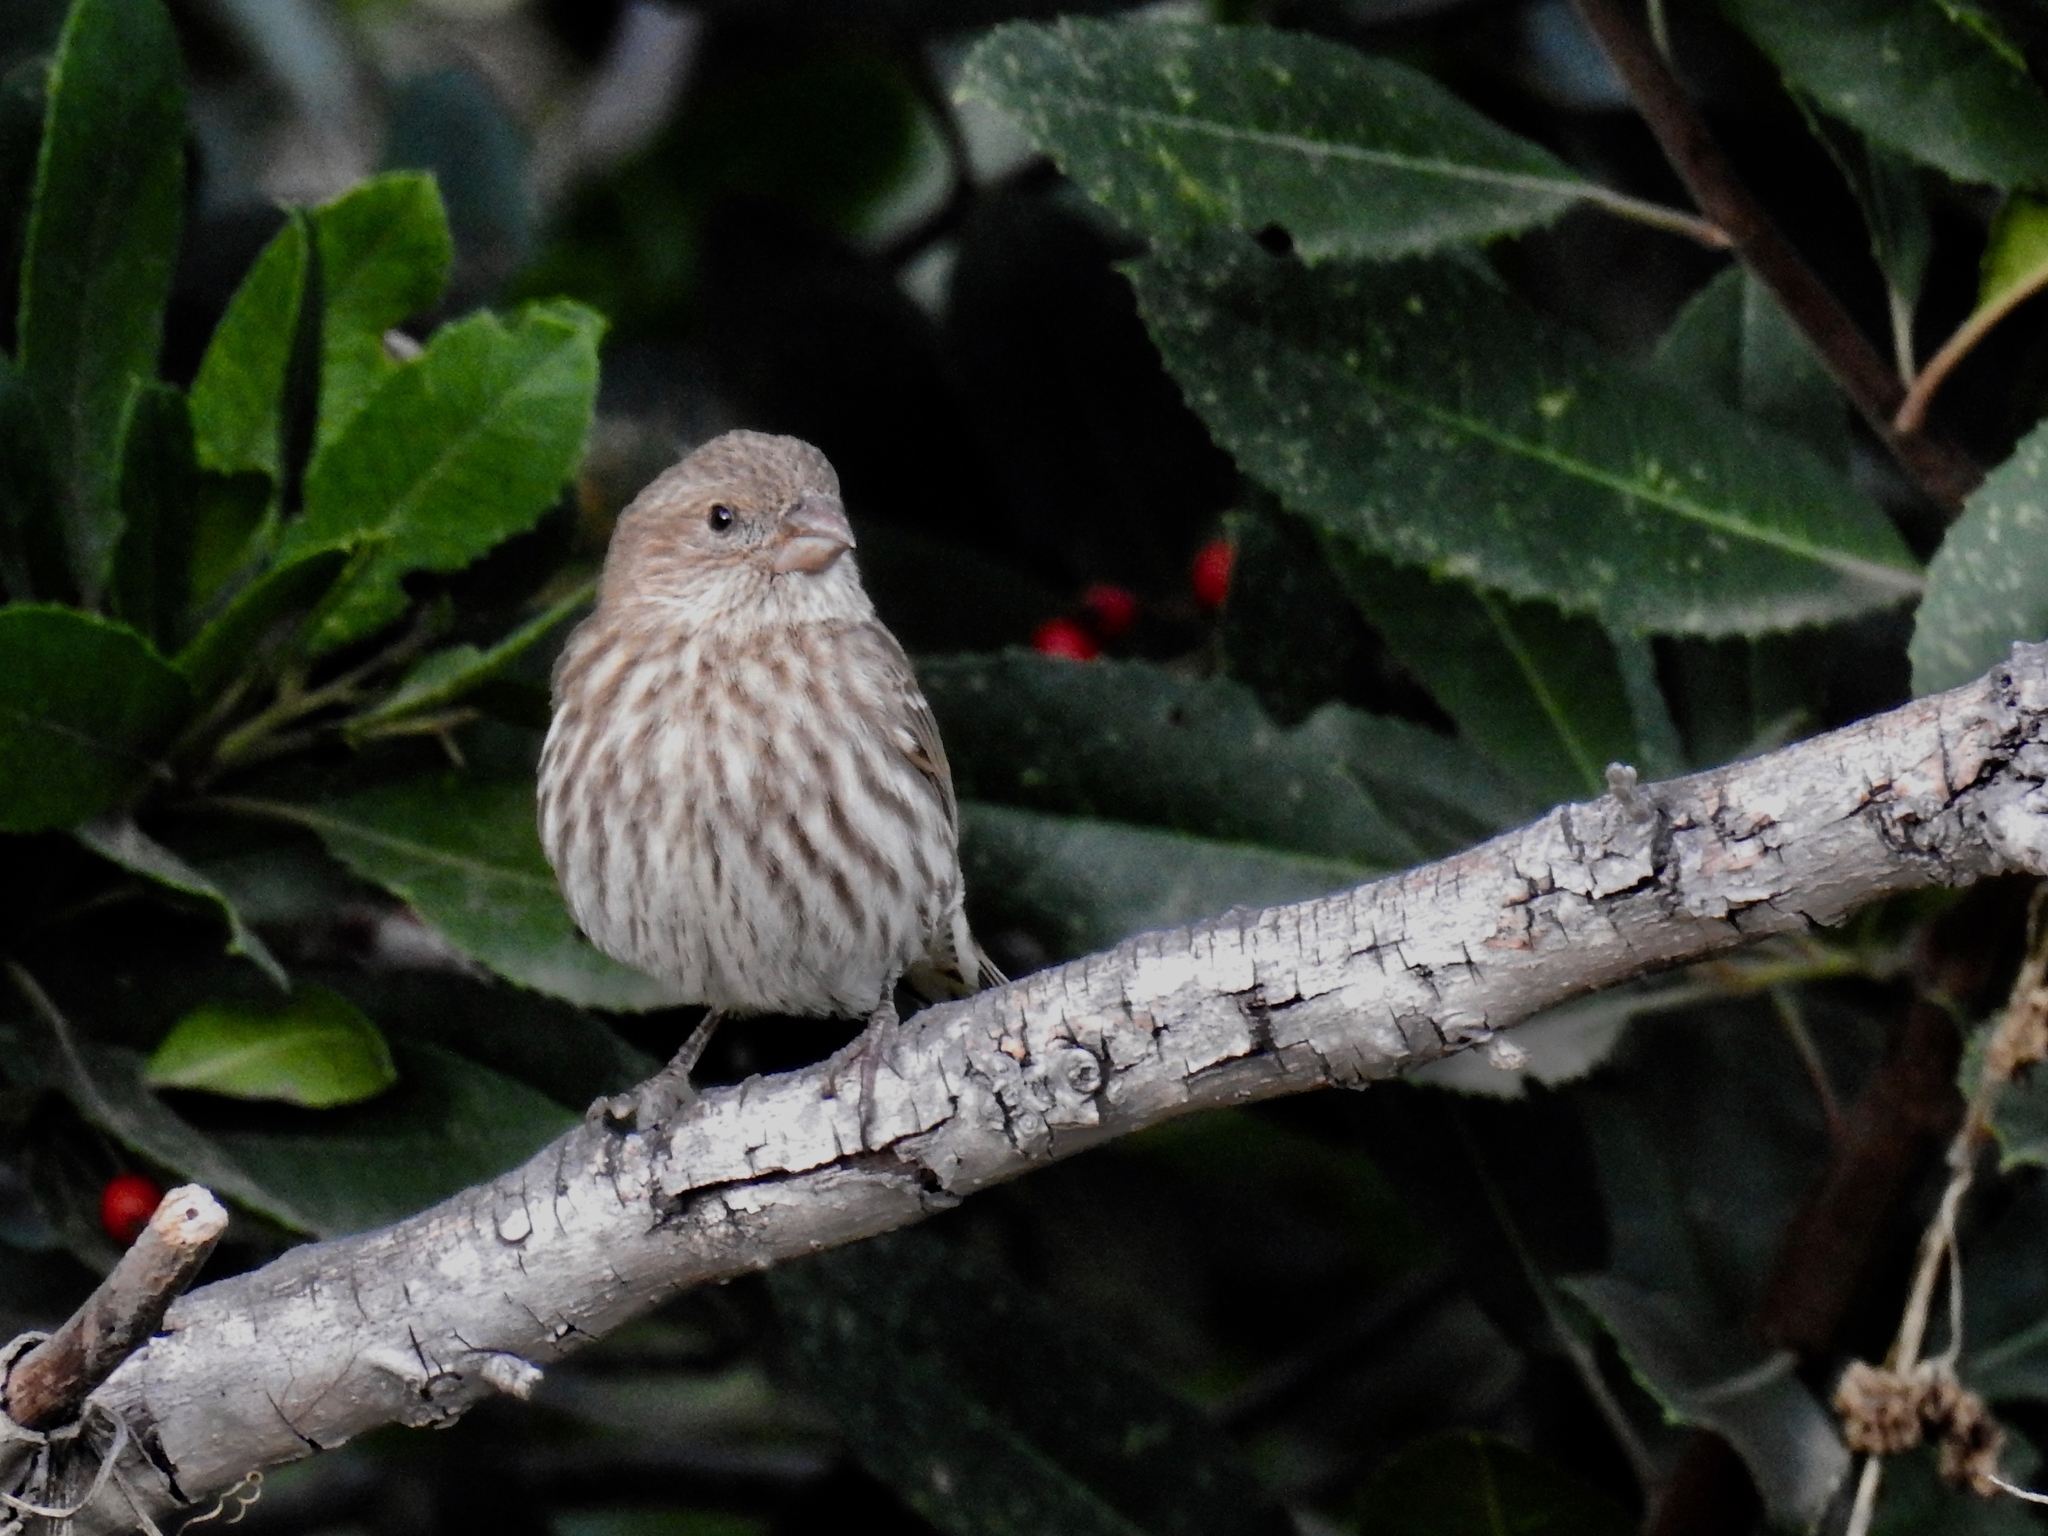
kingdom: Animalia
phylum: Chordata
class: Aves
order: Passeriformes
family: Fringillidae
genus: Haemorhous
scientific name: Haemorhous mexicanus
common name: House finch
